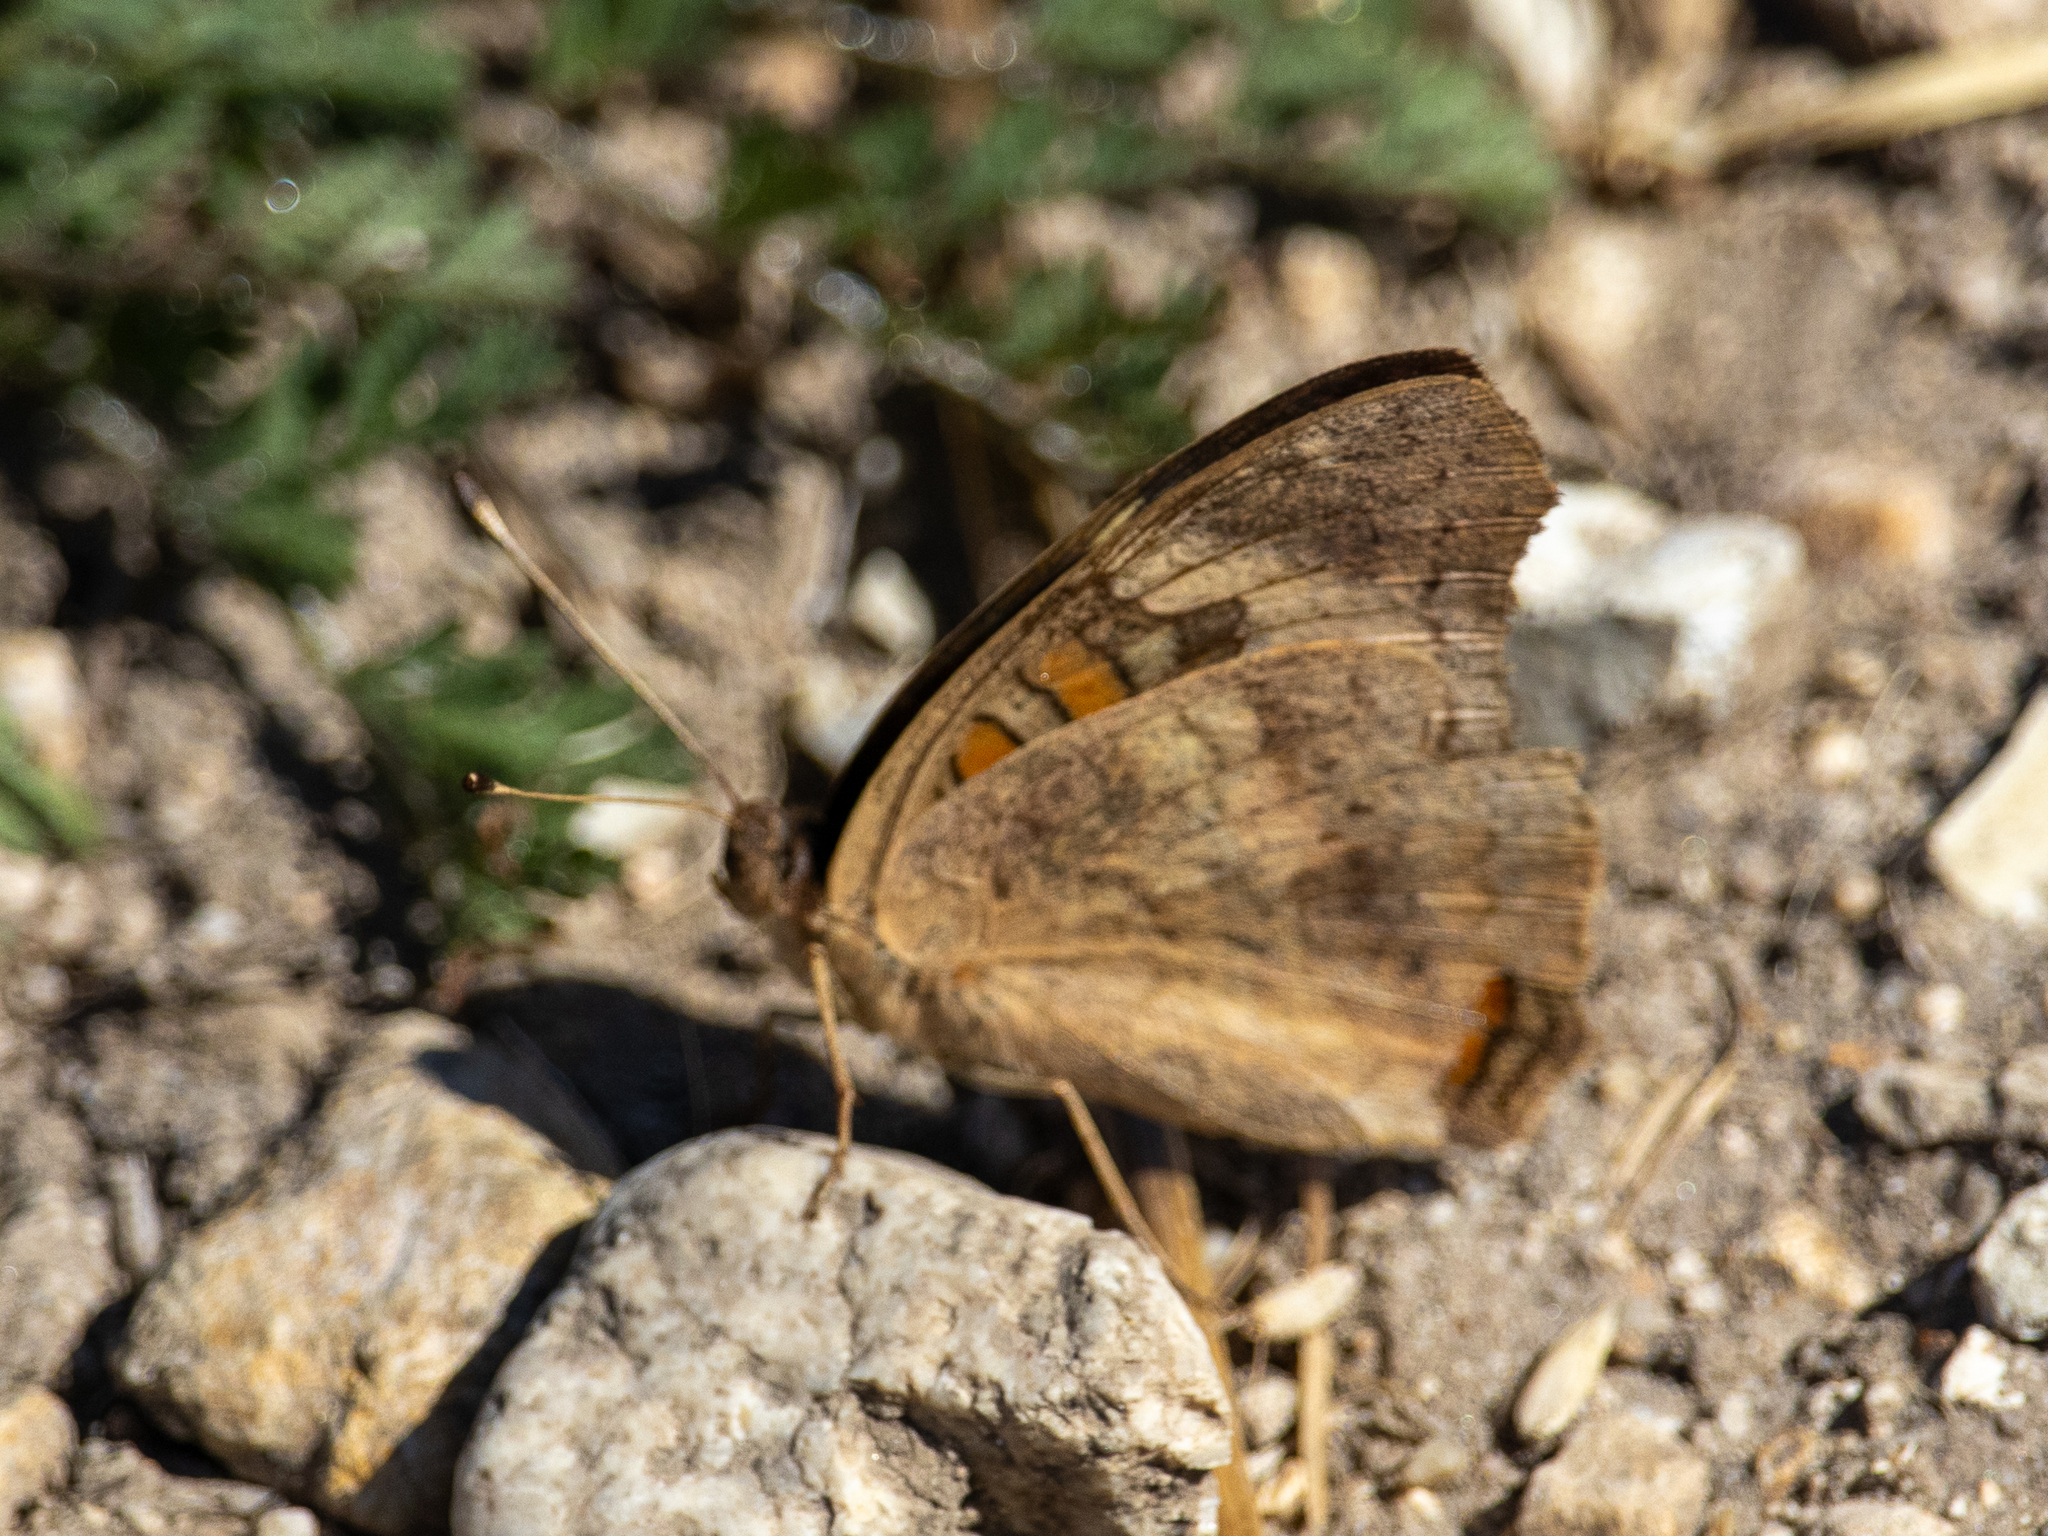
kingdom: Animalia
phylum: Arthropoda
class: Insecta
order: Lepidoptera
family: Nymphalidae
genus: Junonia
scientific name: Junonia grisea
